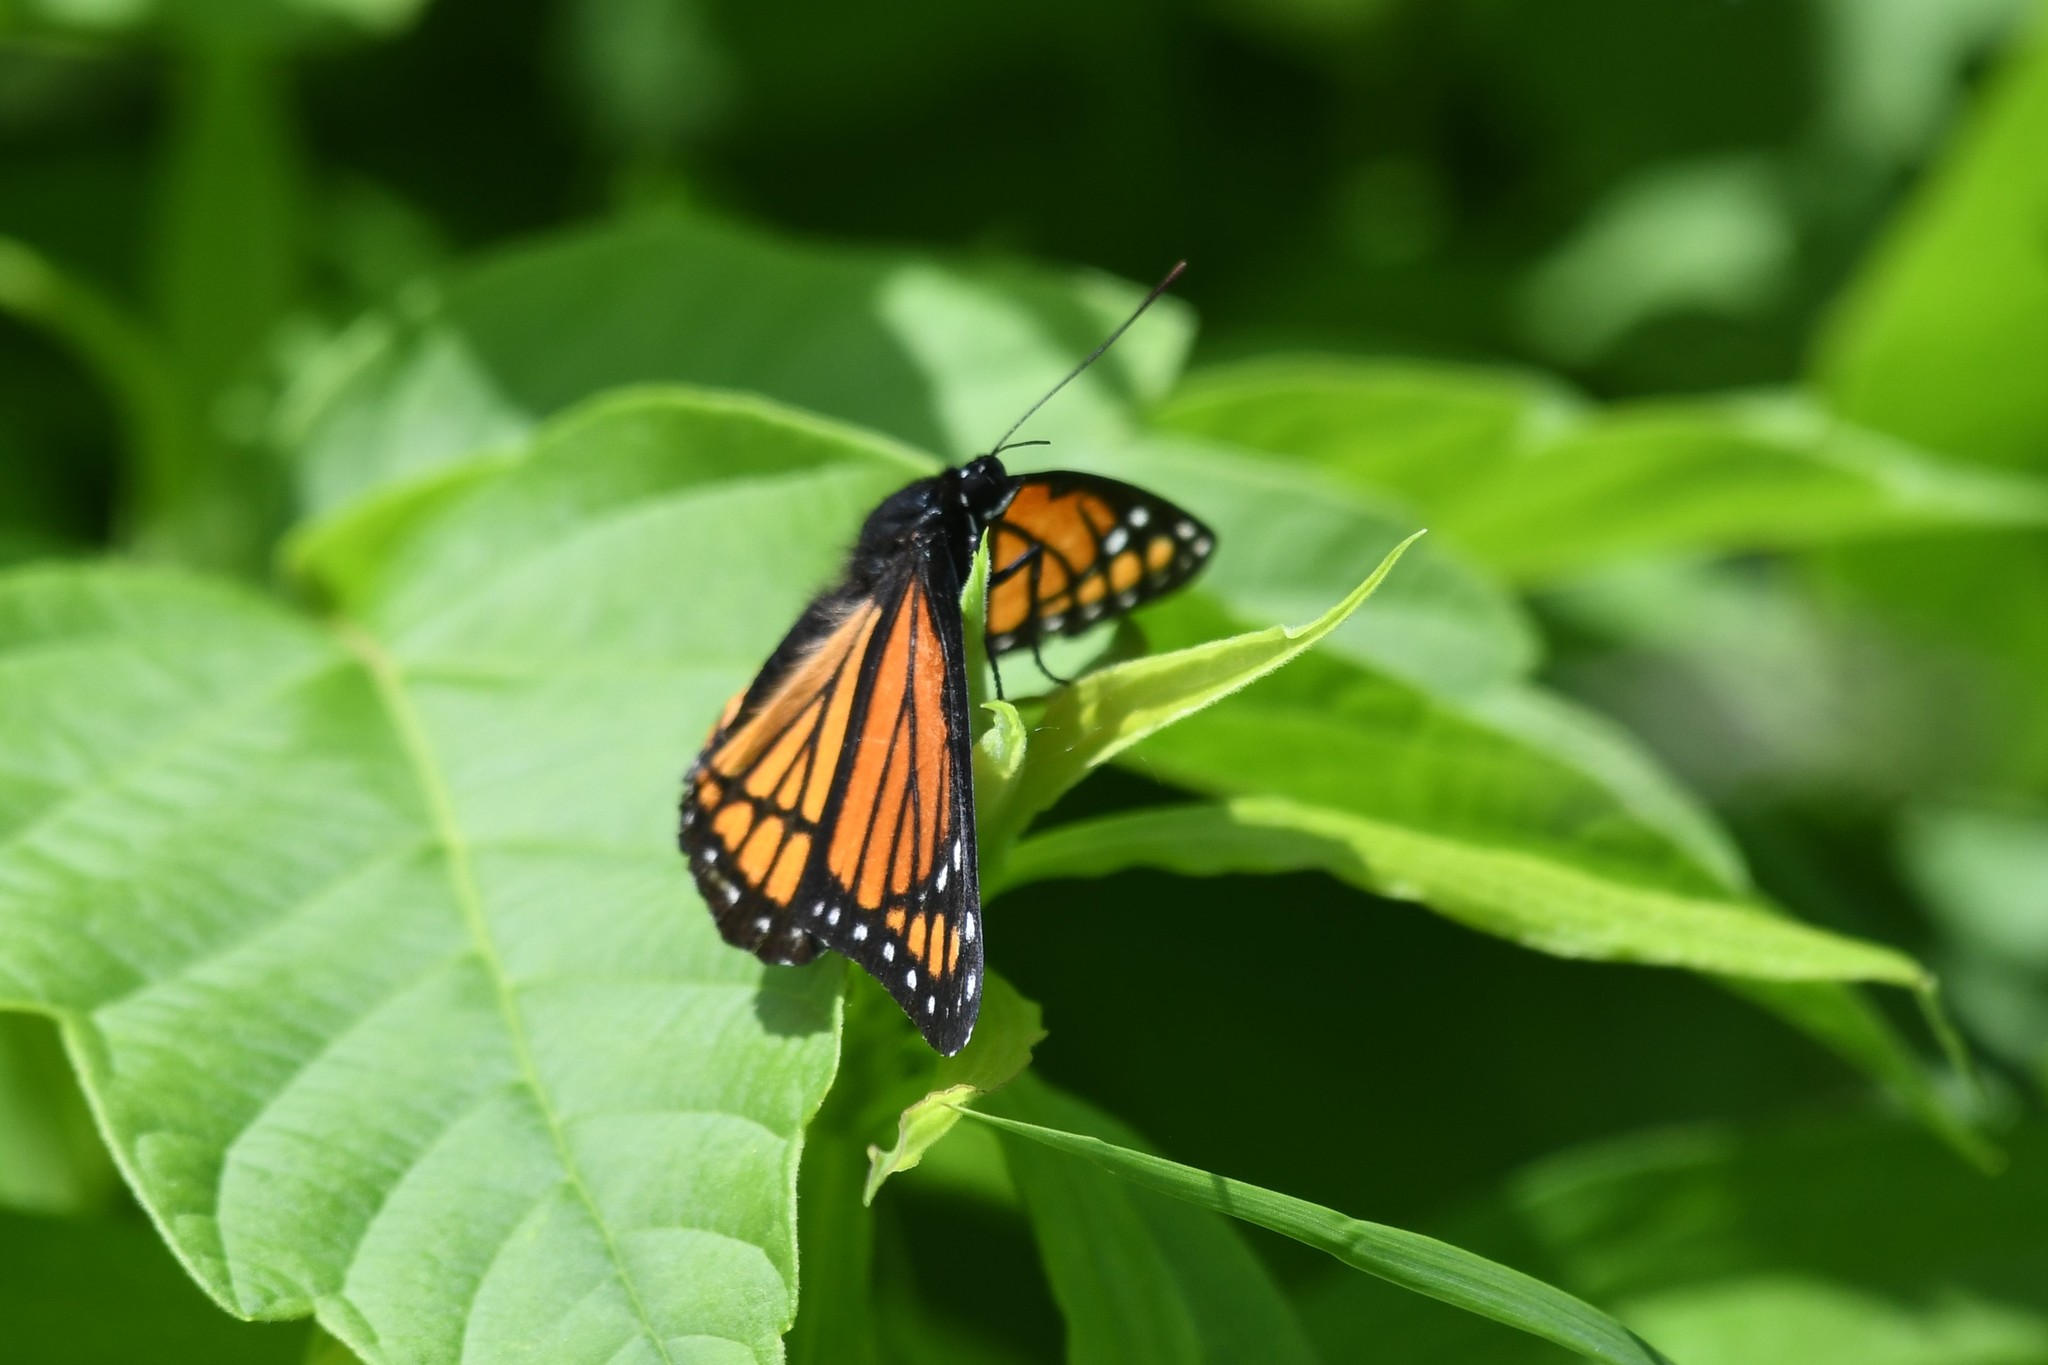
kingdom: Animalia
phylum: Arthropoda
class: Insecta
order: Lepidoptera
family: Nymphalidae
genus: Limenitis
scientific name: Limenitis archippus
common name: Viceroy
